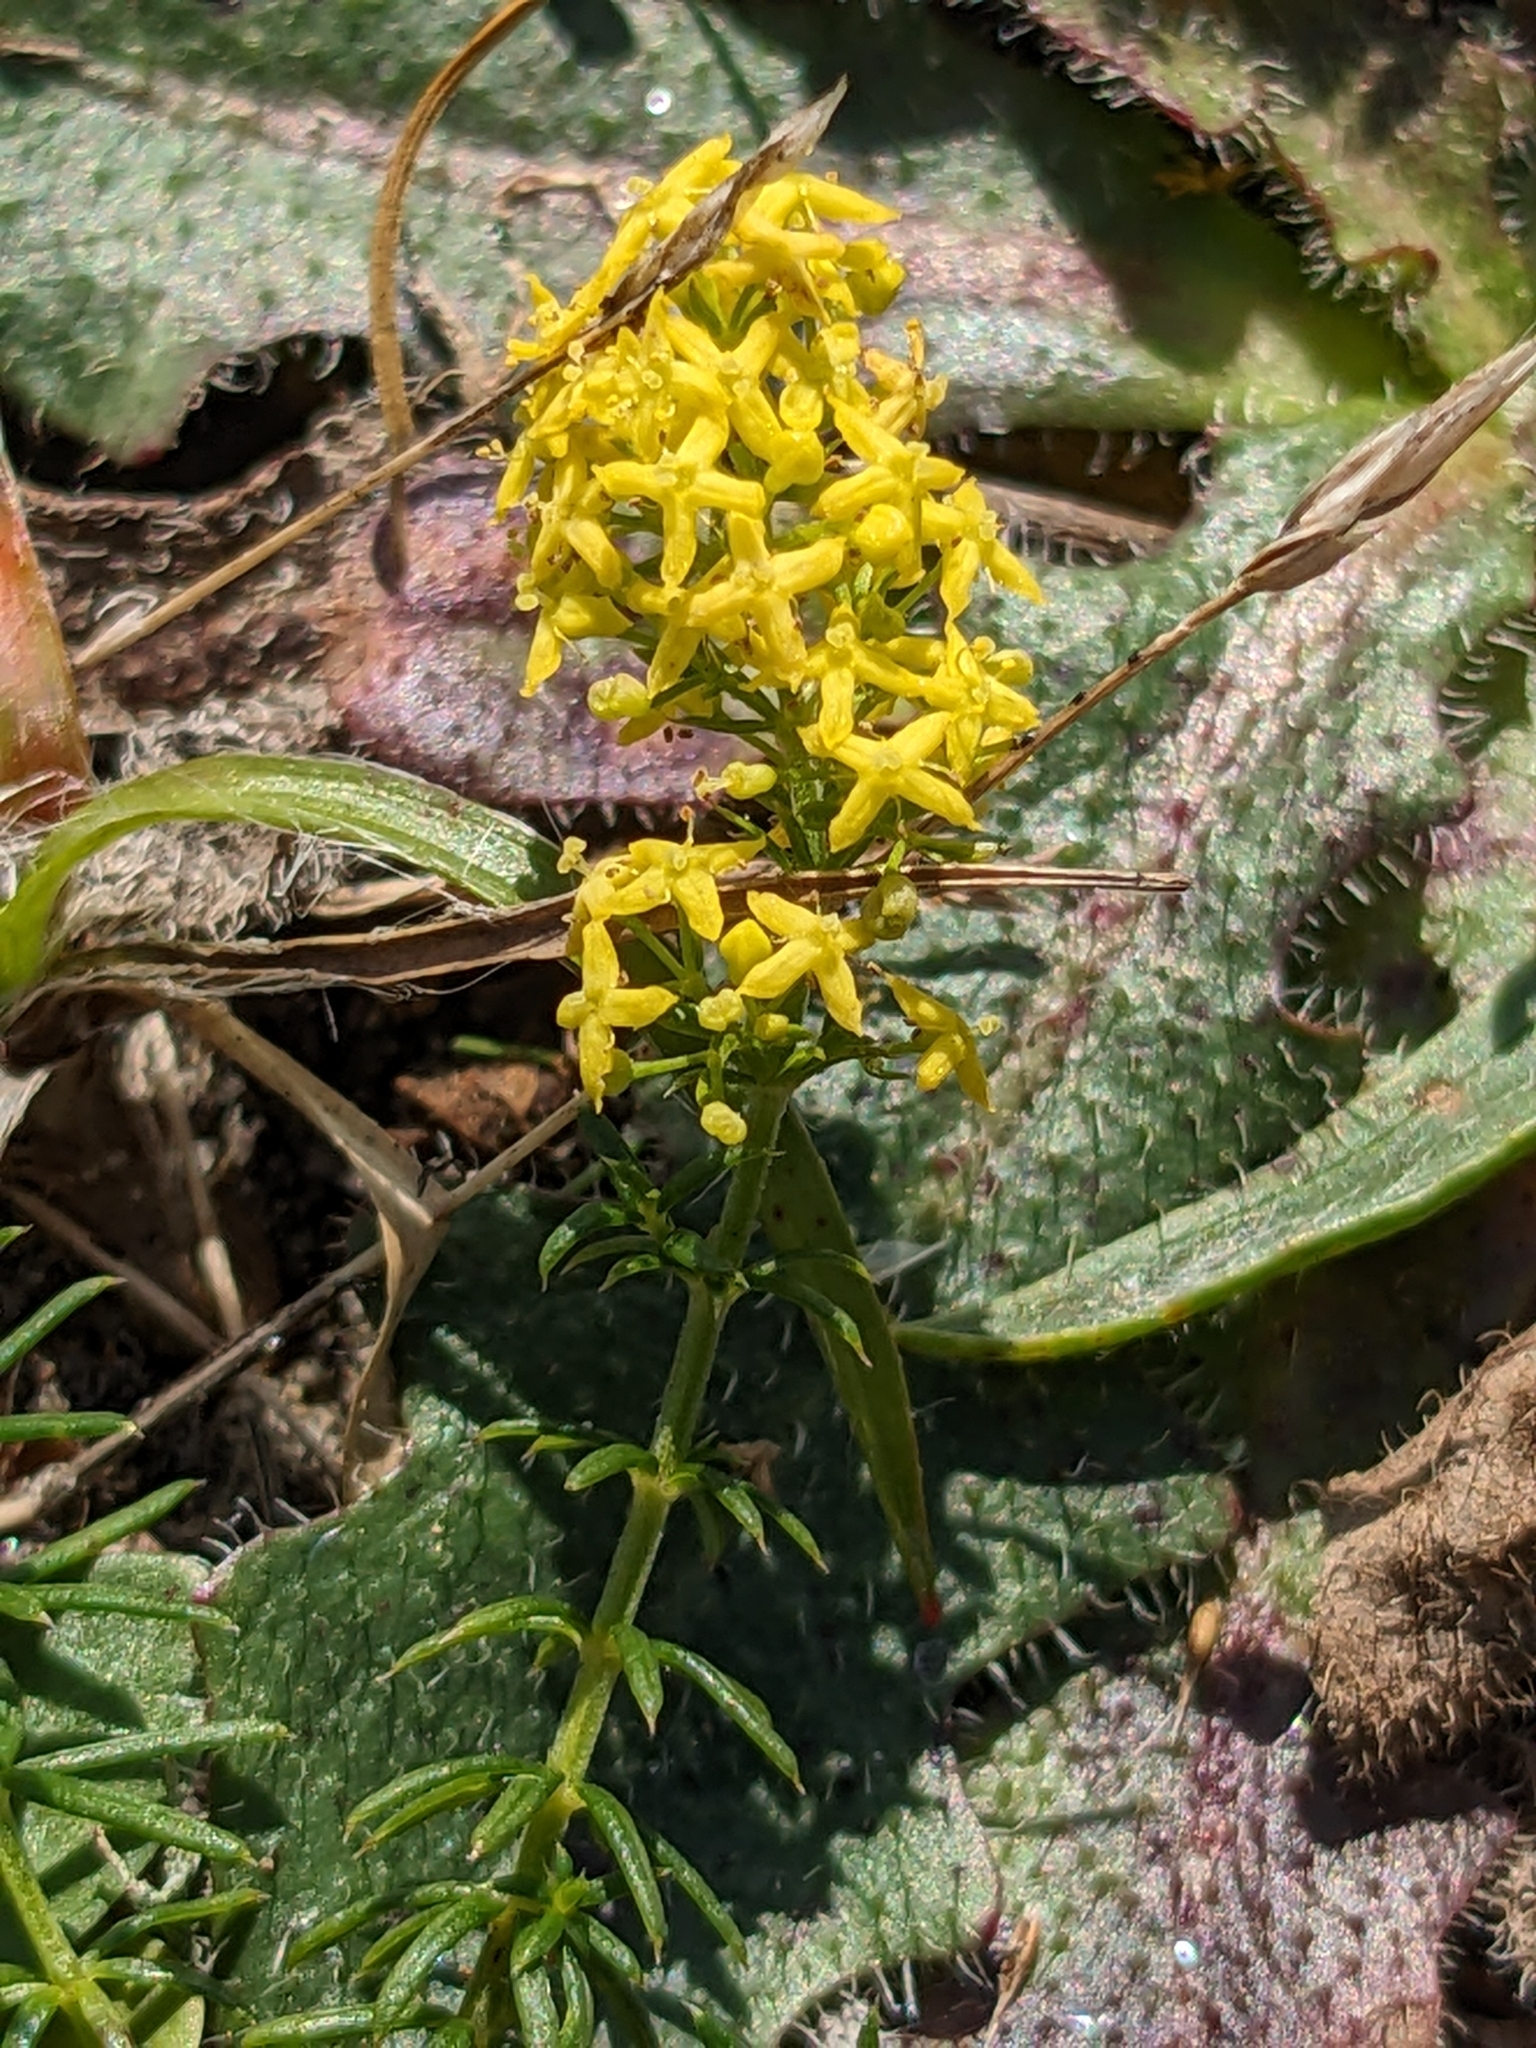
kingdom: Plantae
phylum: Tracheophyta
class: Magnoliopsida
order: Gentianales
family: Rubiaceae
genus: Galium
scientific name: Galium verum
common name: Lady's bedstraw
